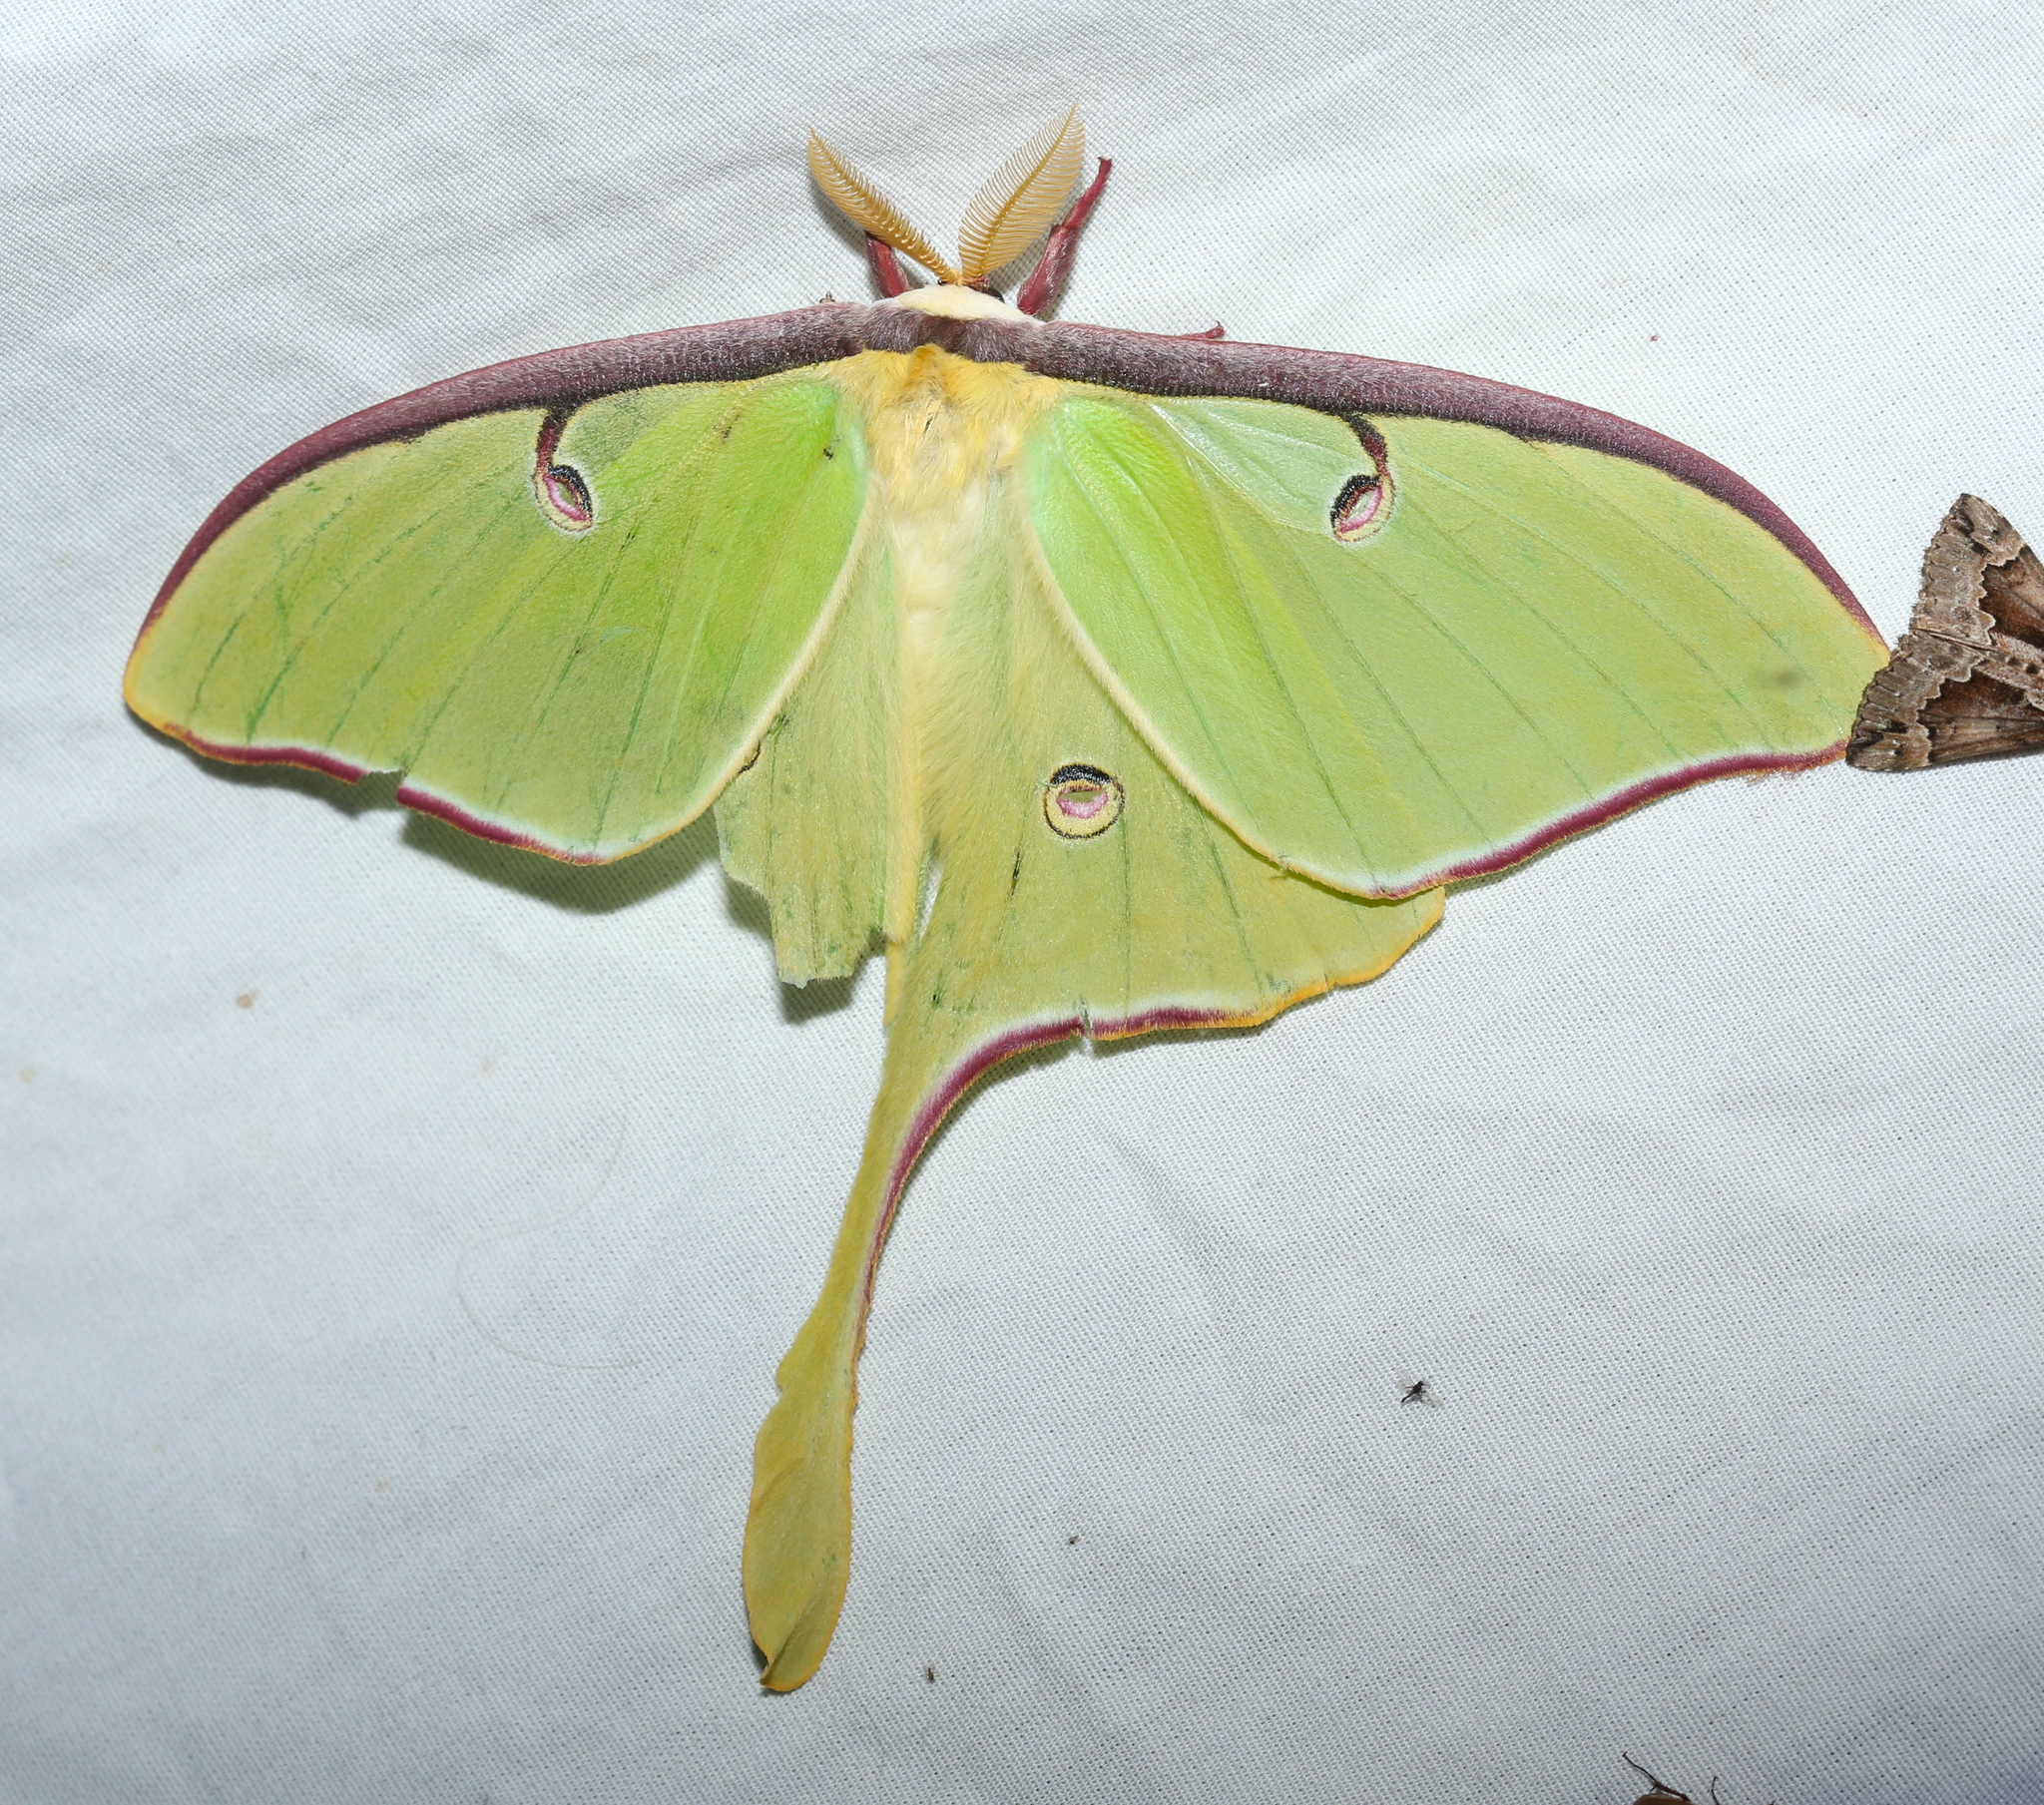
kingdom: Animalia
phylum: Arthropoda
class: Insecta
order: Lepidoptera
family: Saturniidae
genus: Actias
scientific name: Actias luna
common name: Luna moth
